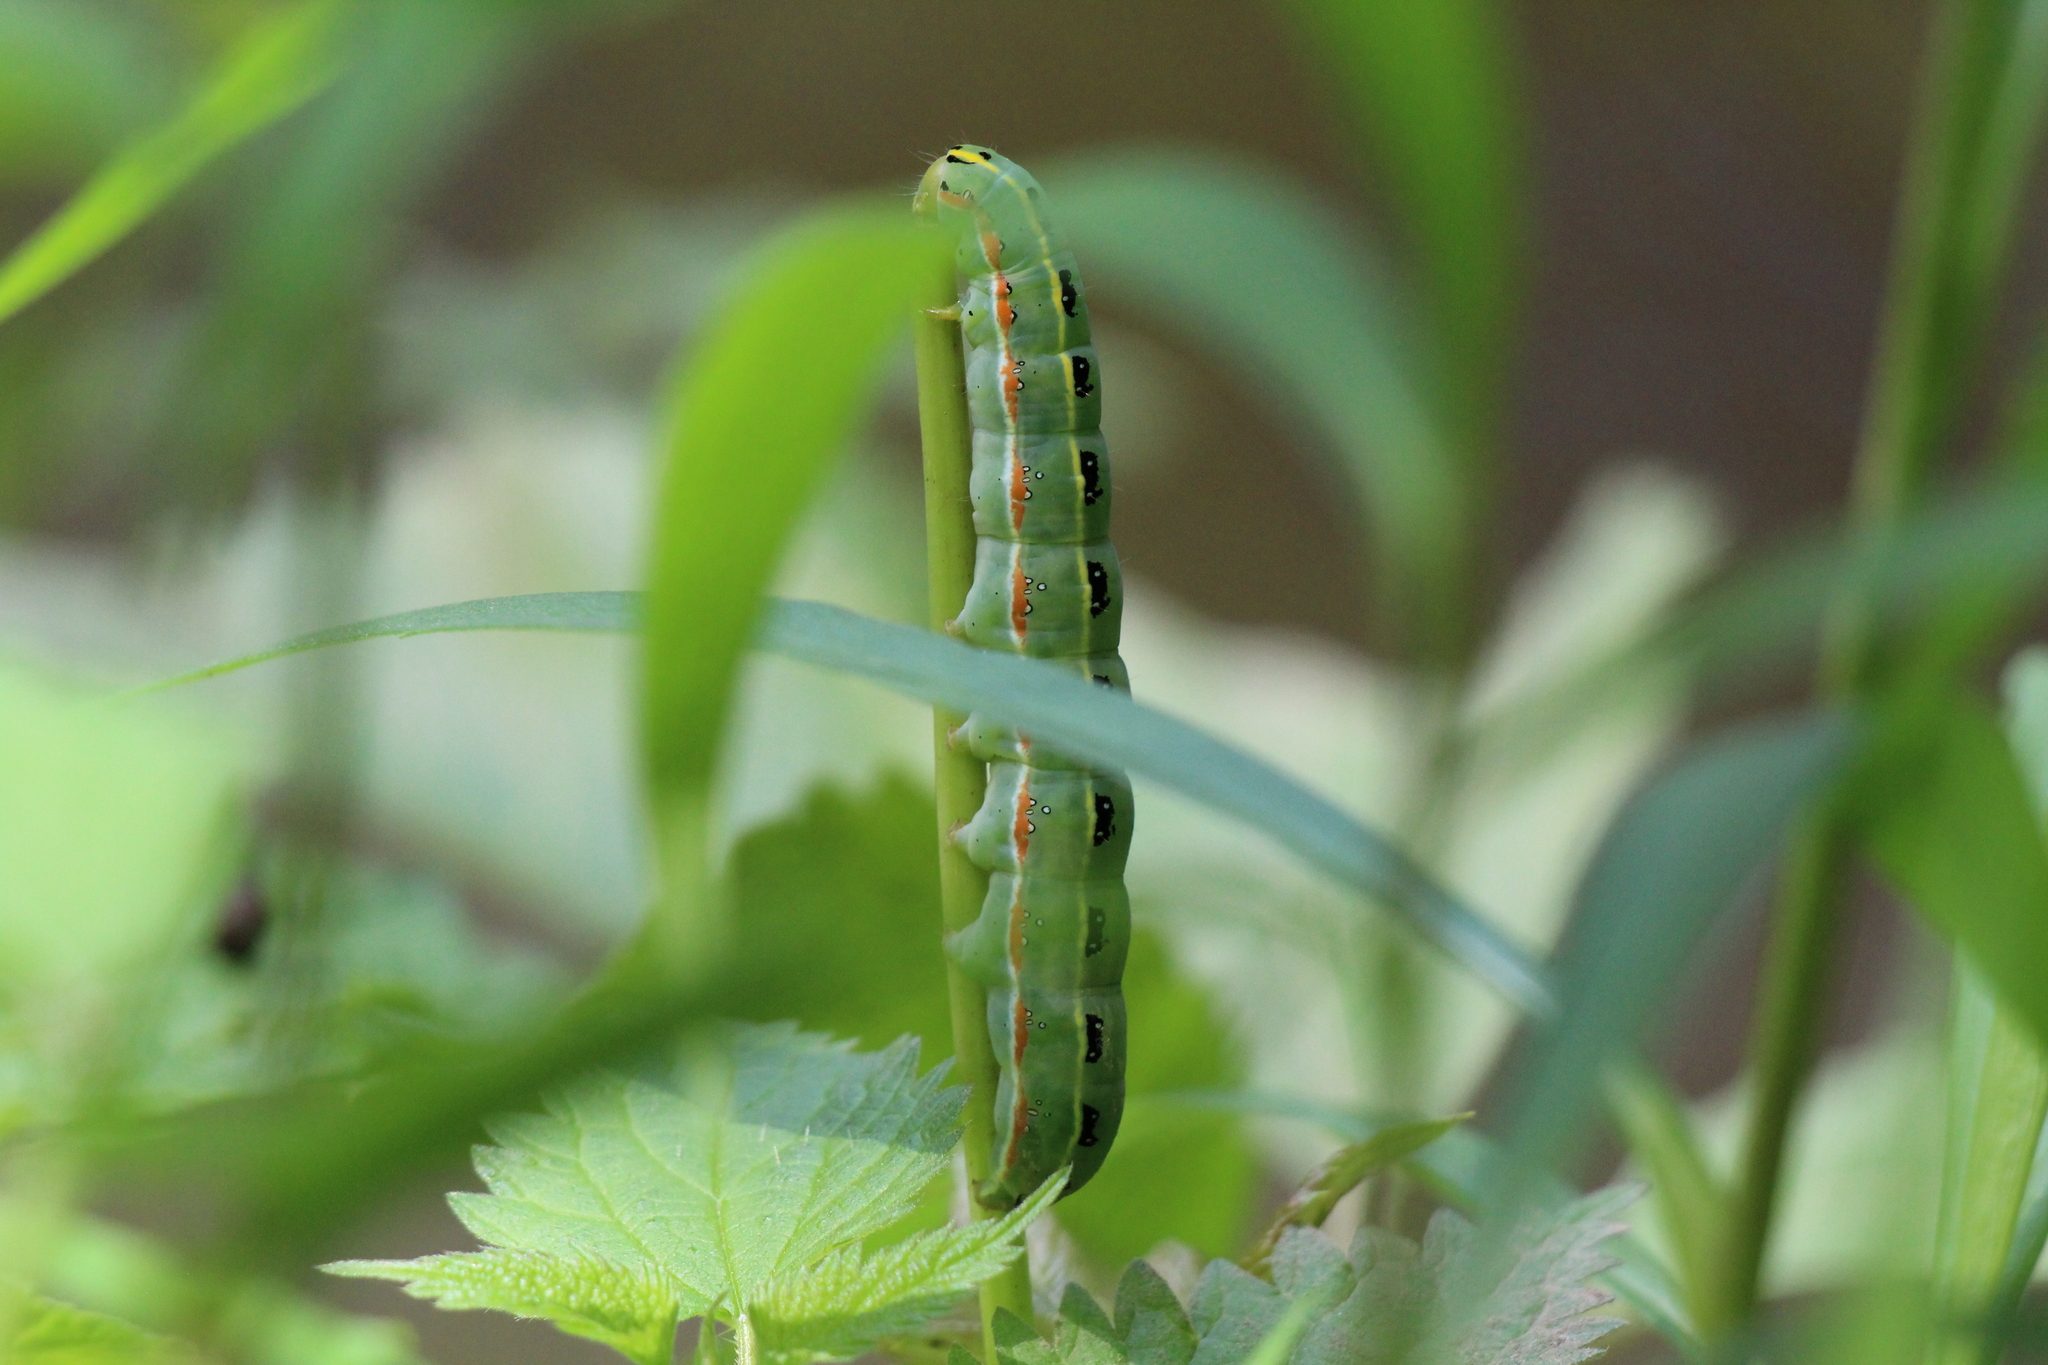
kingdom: Animalia
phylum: Arthropoda
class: Insecta
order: Lepidoptera
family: Noctuidae
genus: Xylena
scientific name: Xylena exsoleta
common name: Sword-grass
